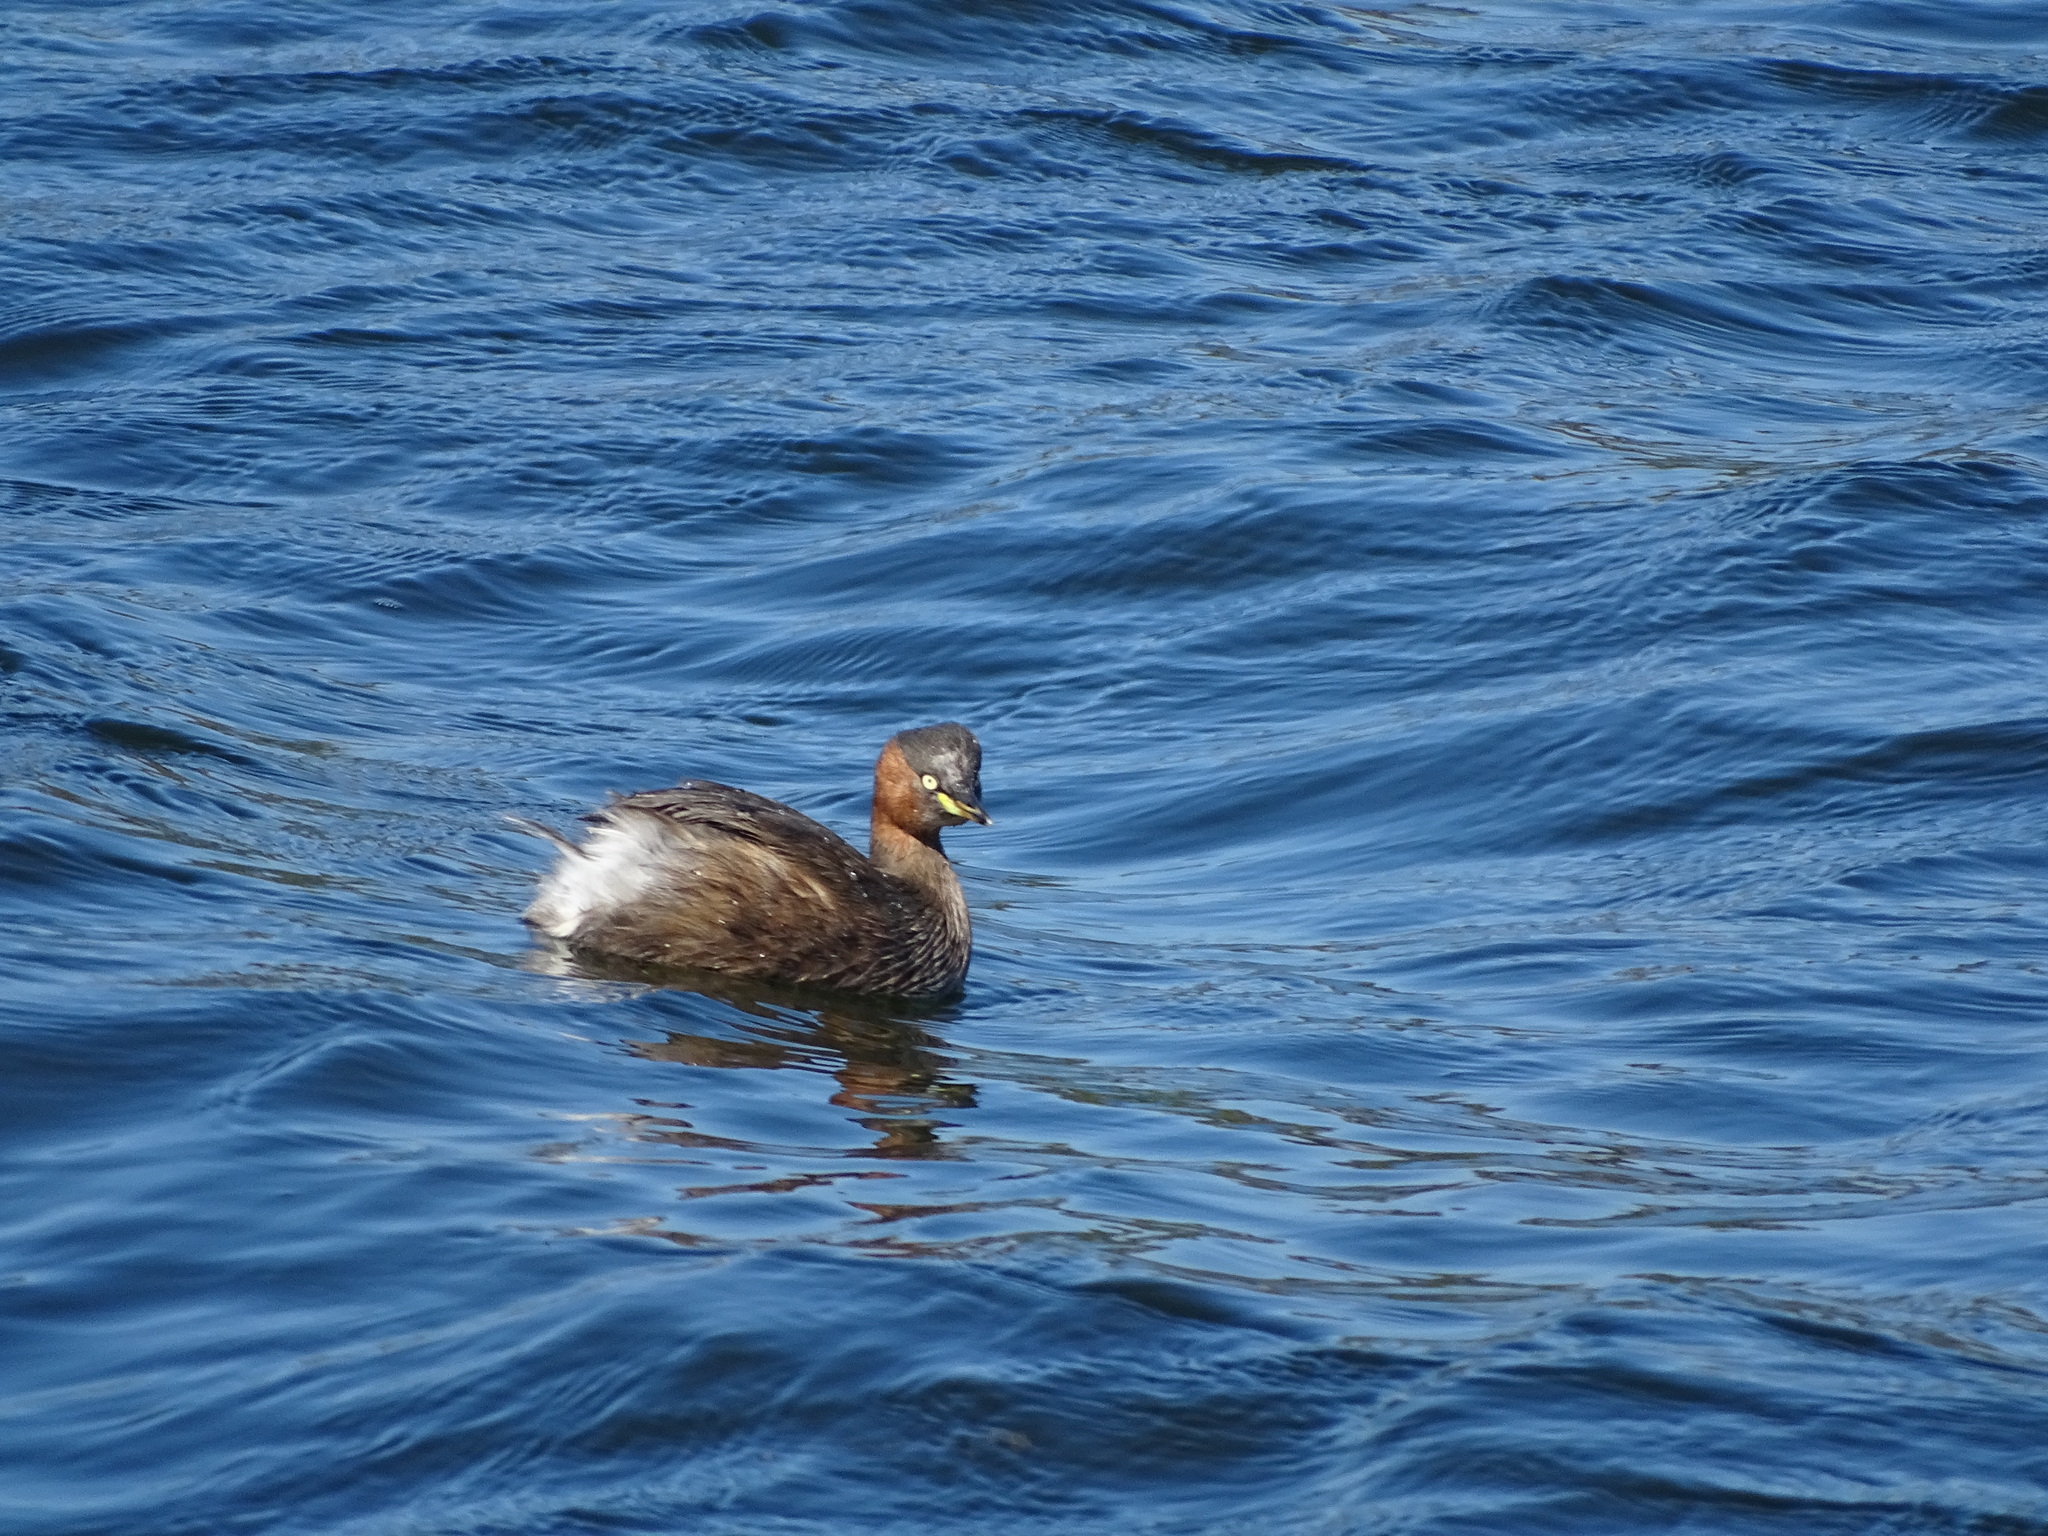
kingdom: Animalia
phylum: Chordata
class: Aves
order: Podicipediformes
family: Podicipedidae
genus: Tachybaptus
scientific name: Tachybaptus ruficollis
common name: Little grebe
